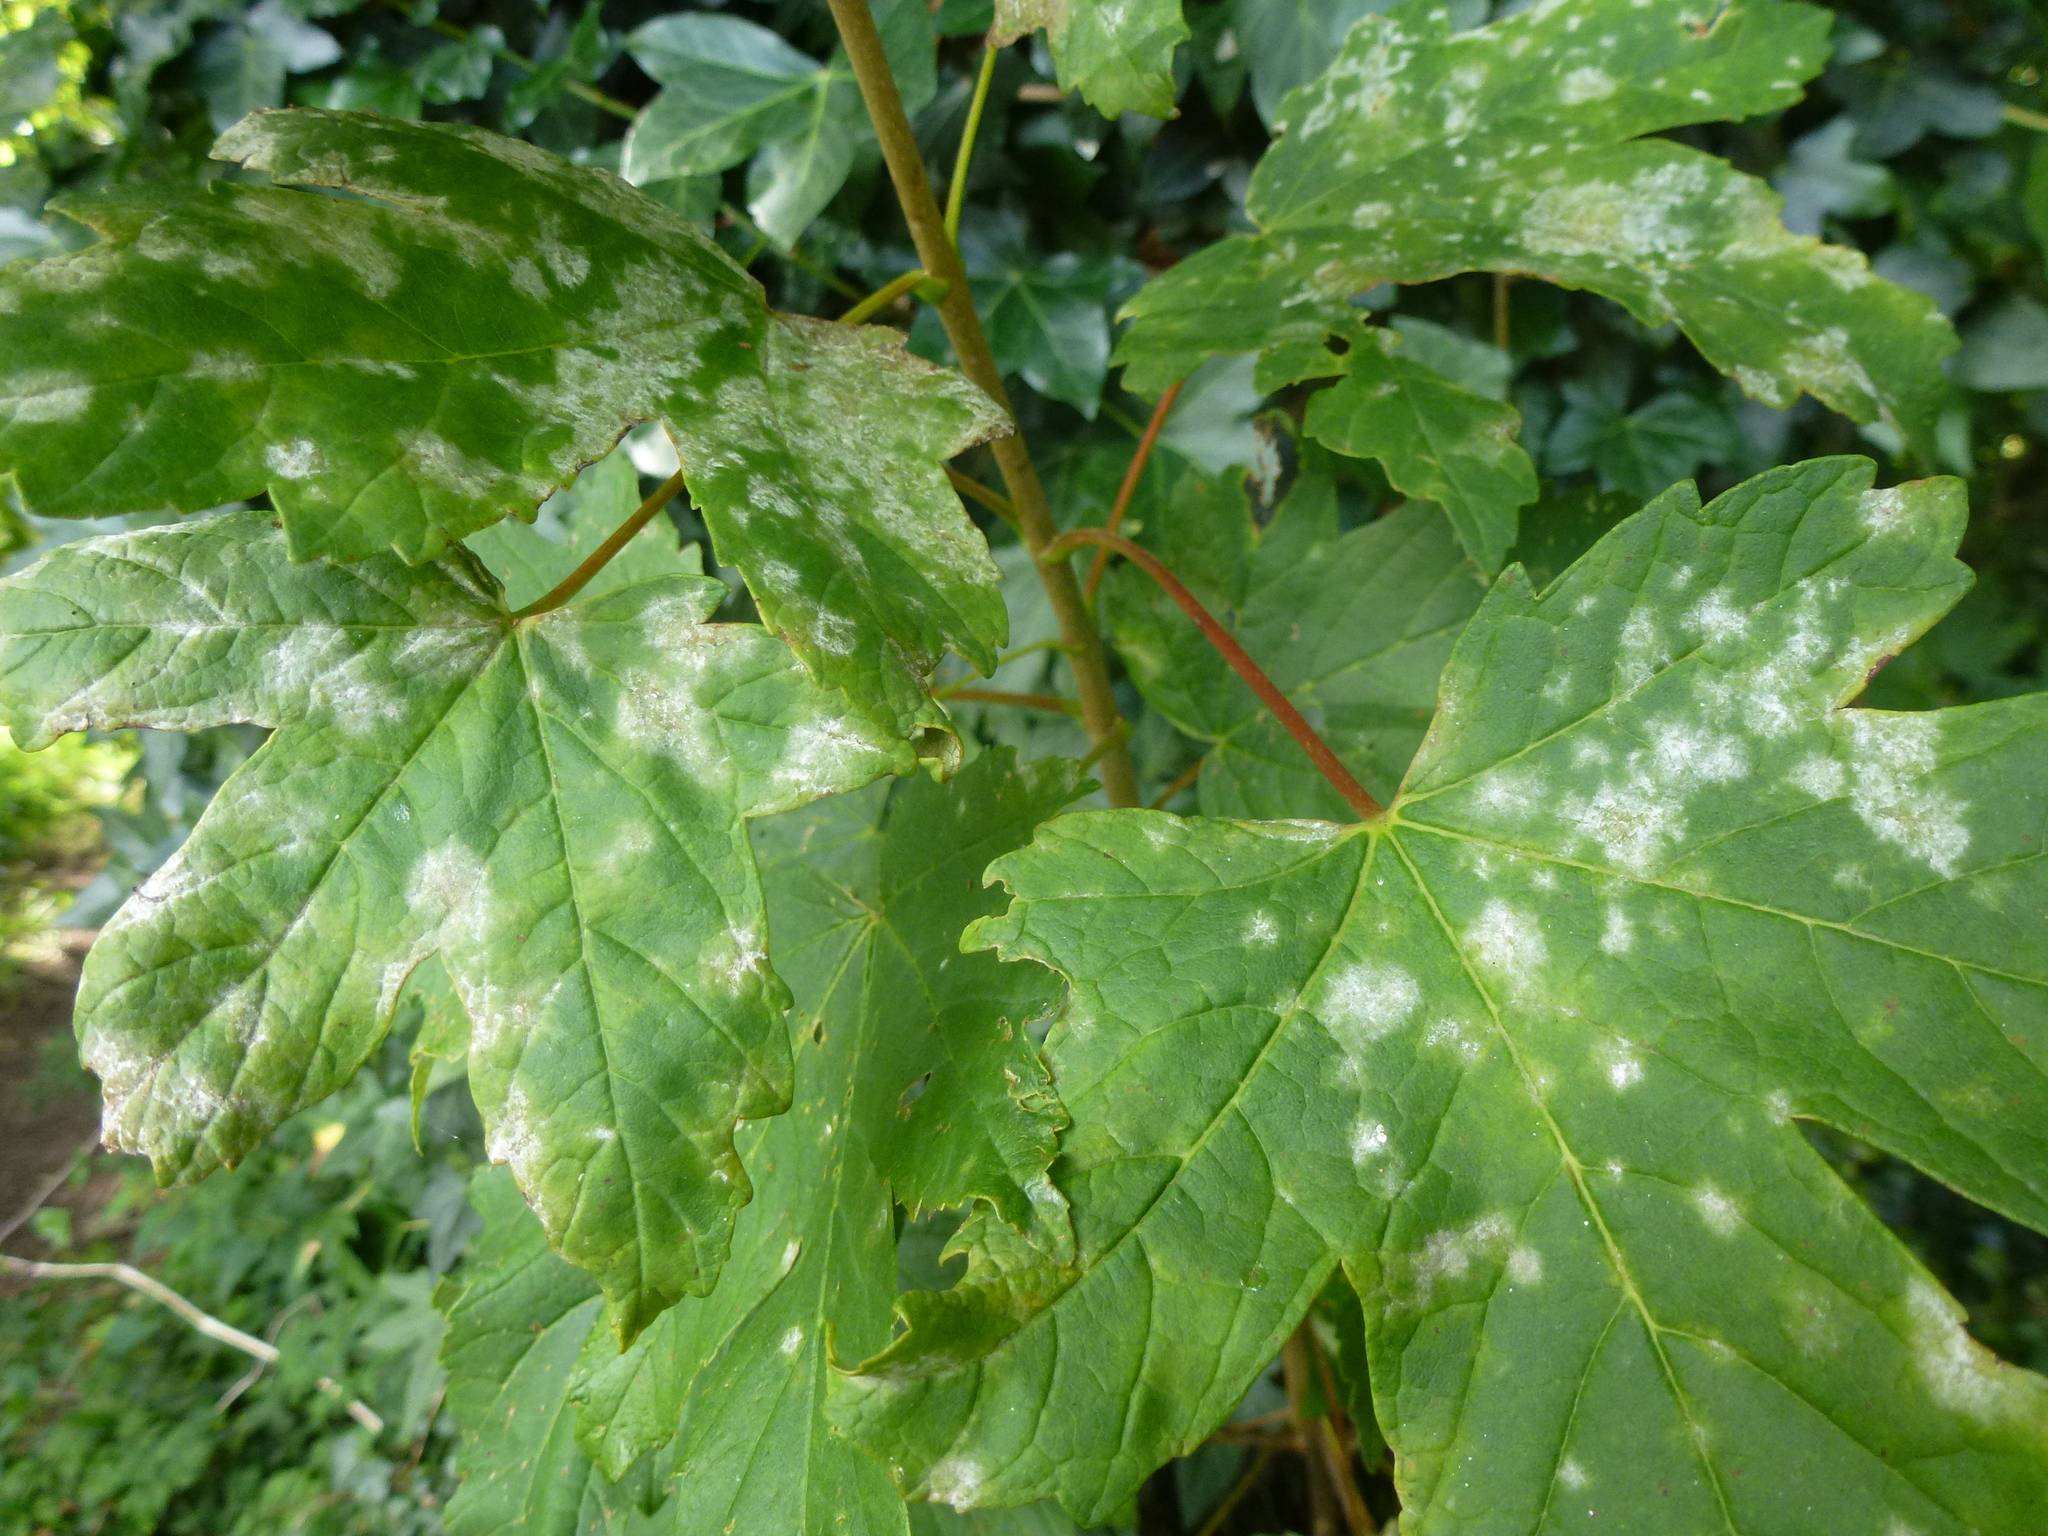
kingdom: Fungi
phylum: Ascomycota
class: Leotiomycetes
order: Helotiales
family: Erysiphaceae
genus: Sawadaea
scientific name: Sawadaea bicornis
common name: Maple mildew
